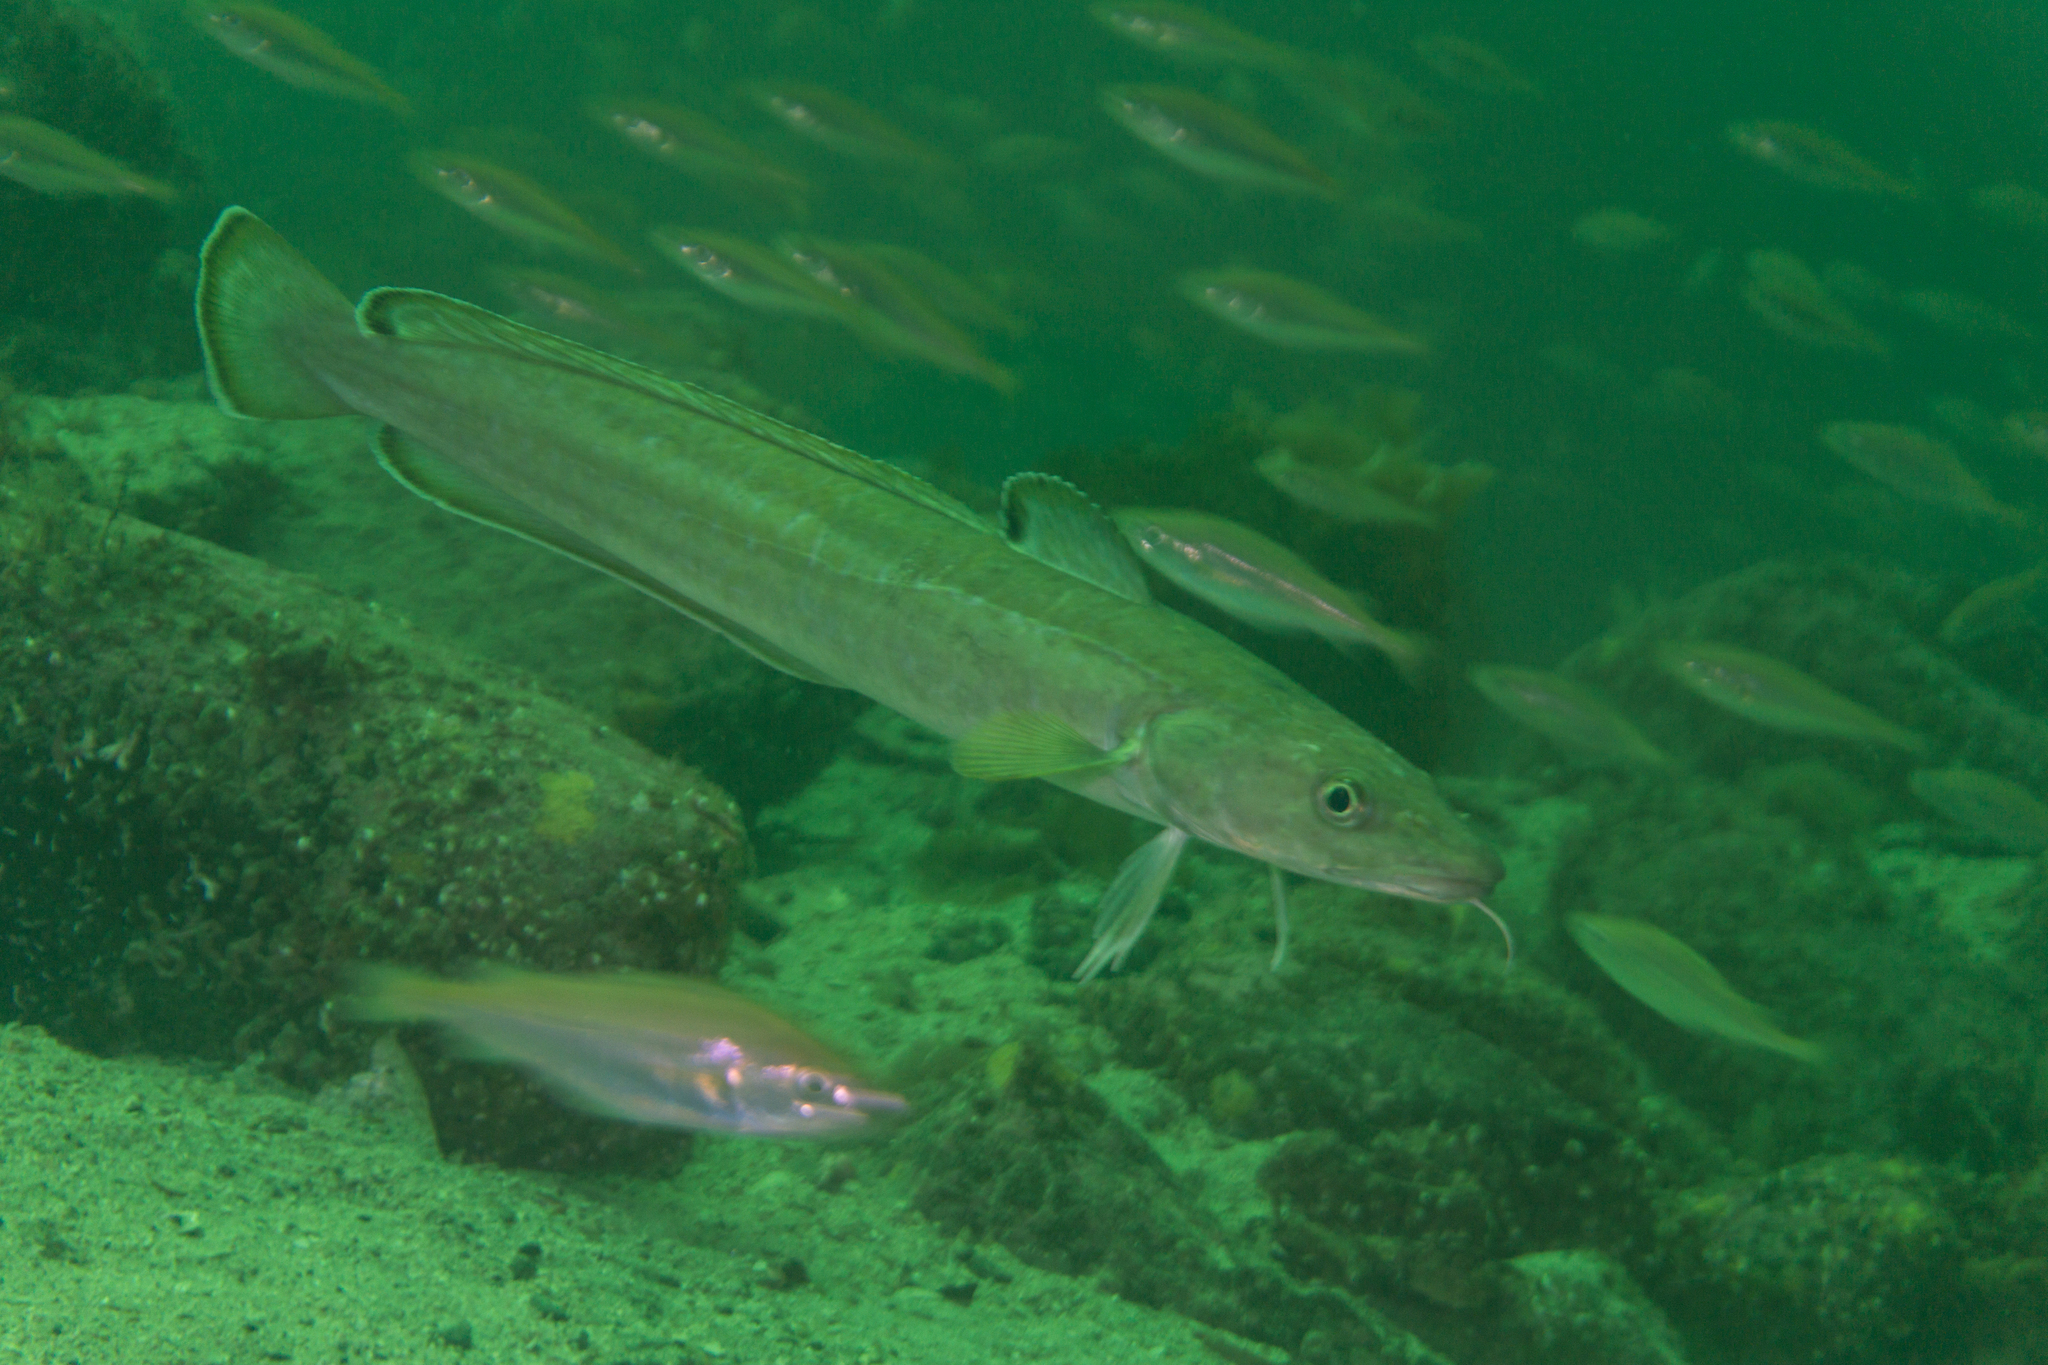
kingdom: Animalia
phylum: Chordata
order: Gadiformes
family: Lotidae
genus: Molva
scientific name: Molva molva
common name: Ling
